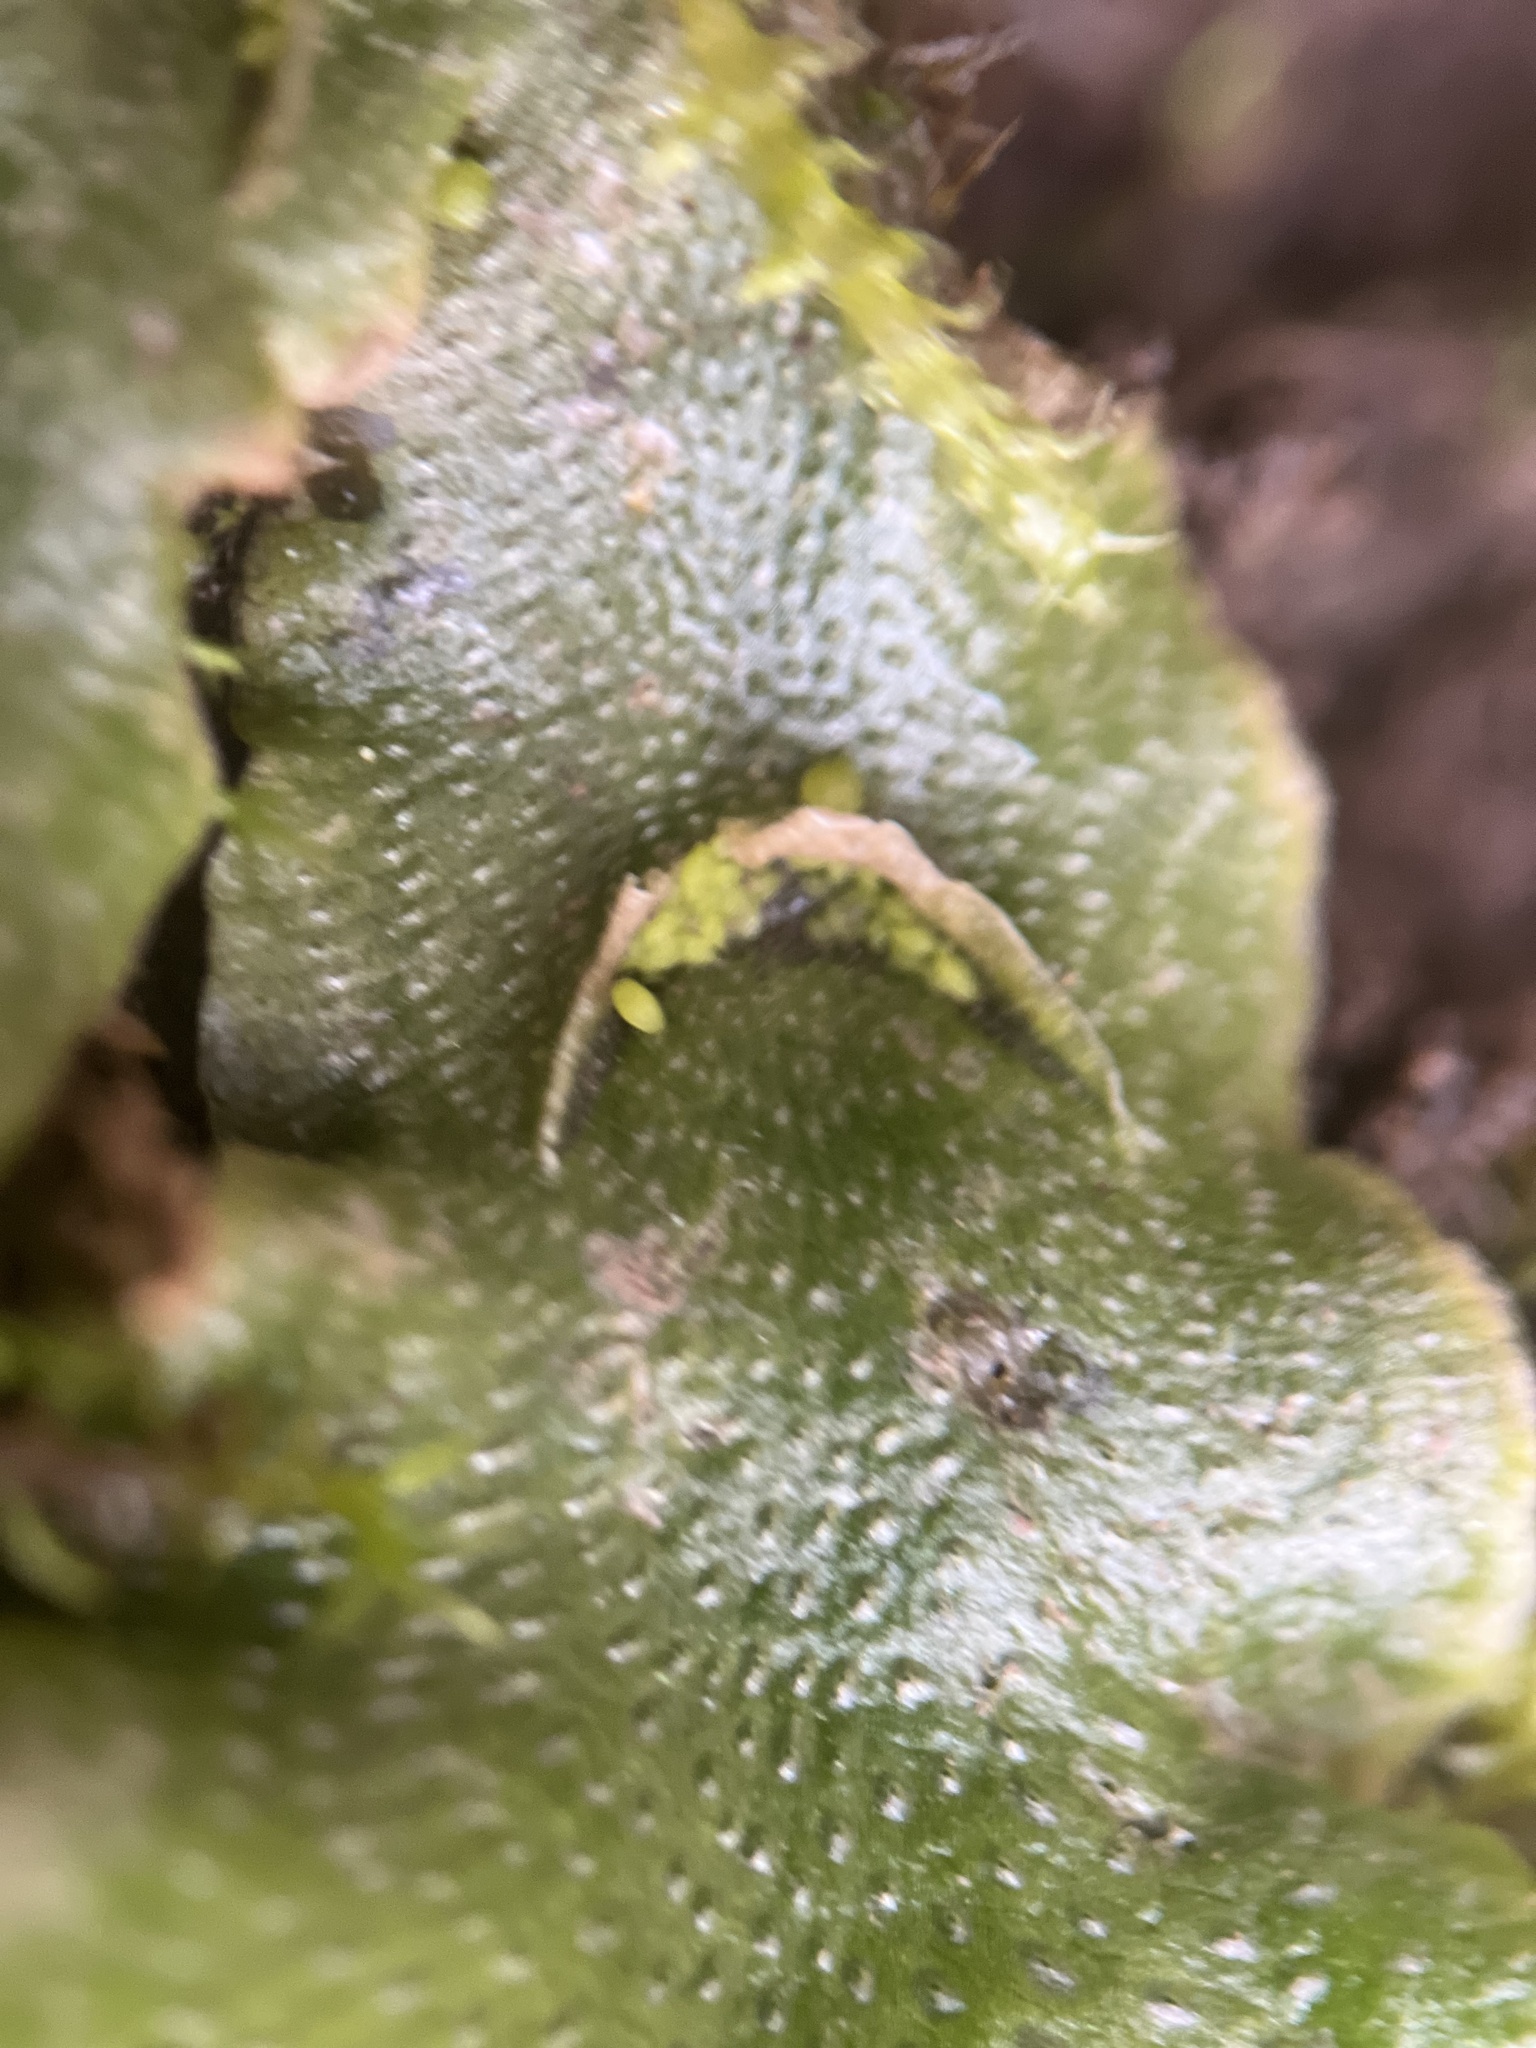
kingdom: Plantae
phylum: Marchantiophyta
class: Marchantiopsida
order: Lunulariales
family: Lunulariaceae
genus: Lunularia
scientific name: Lunularia cruciata
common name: Crescent-cup liverwort
